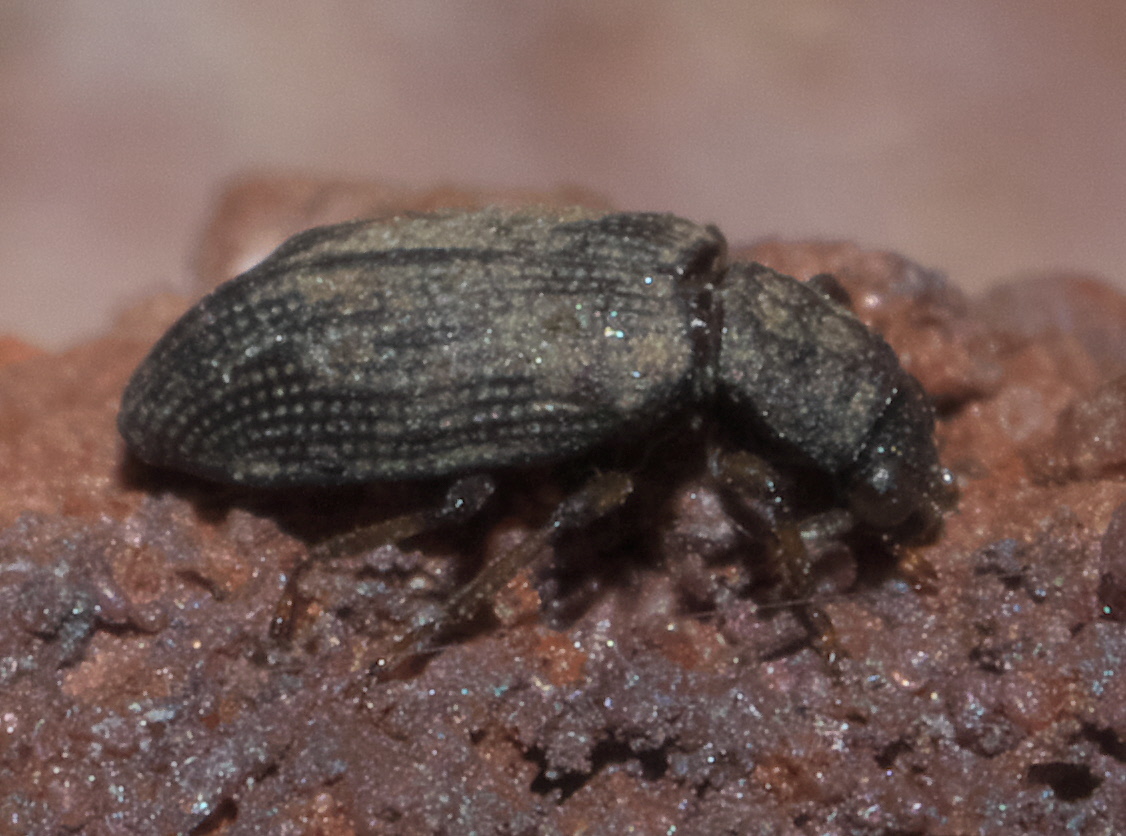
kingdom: Animalia
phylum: Arthropoda
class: Insecta
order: Coleoptera
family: Hydrochidae
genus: Hydrochus
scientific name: Hydrochus
